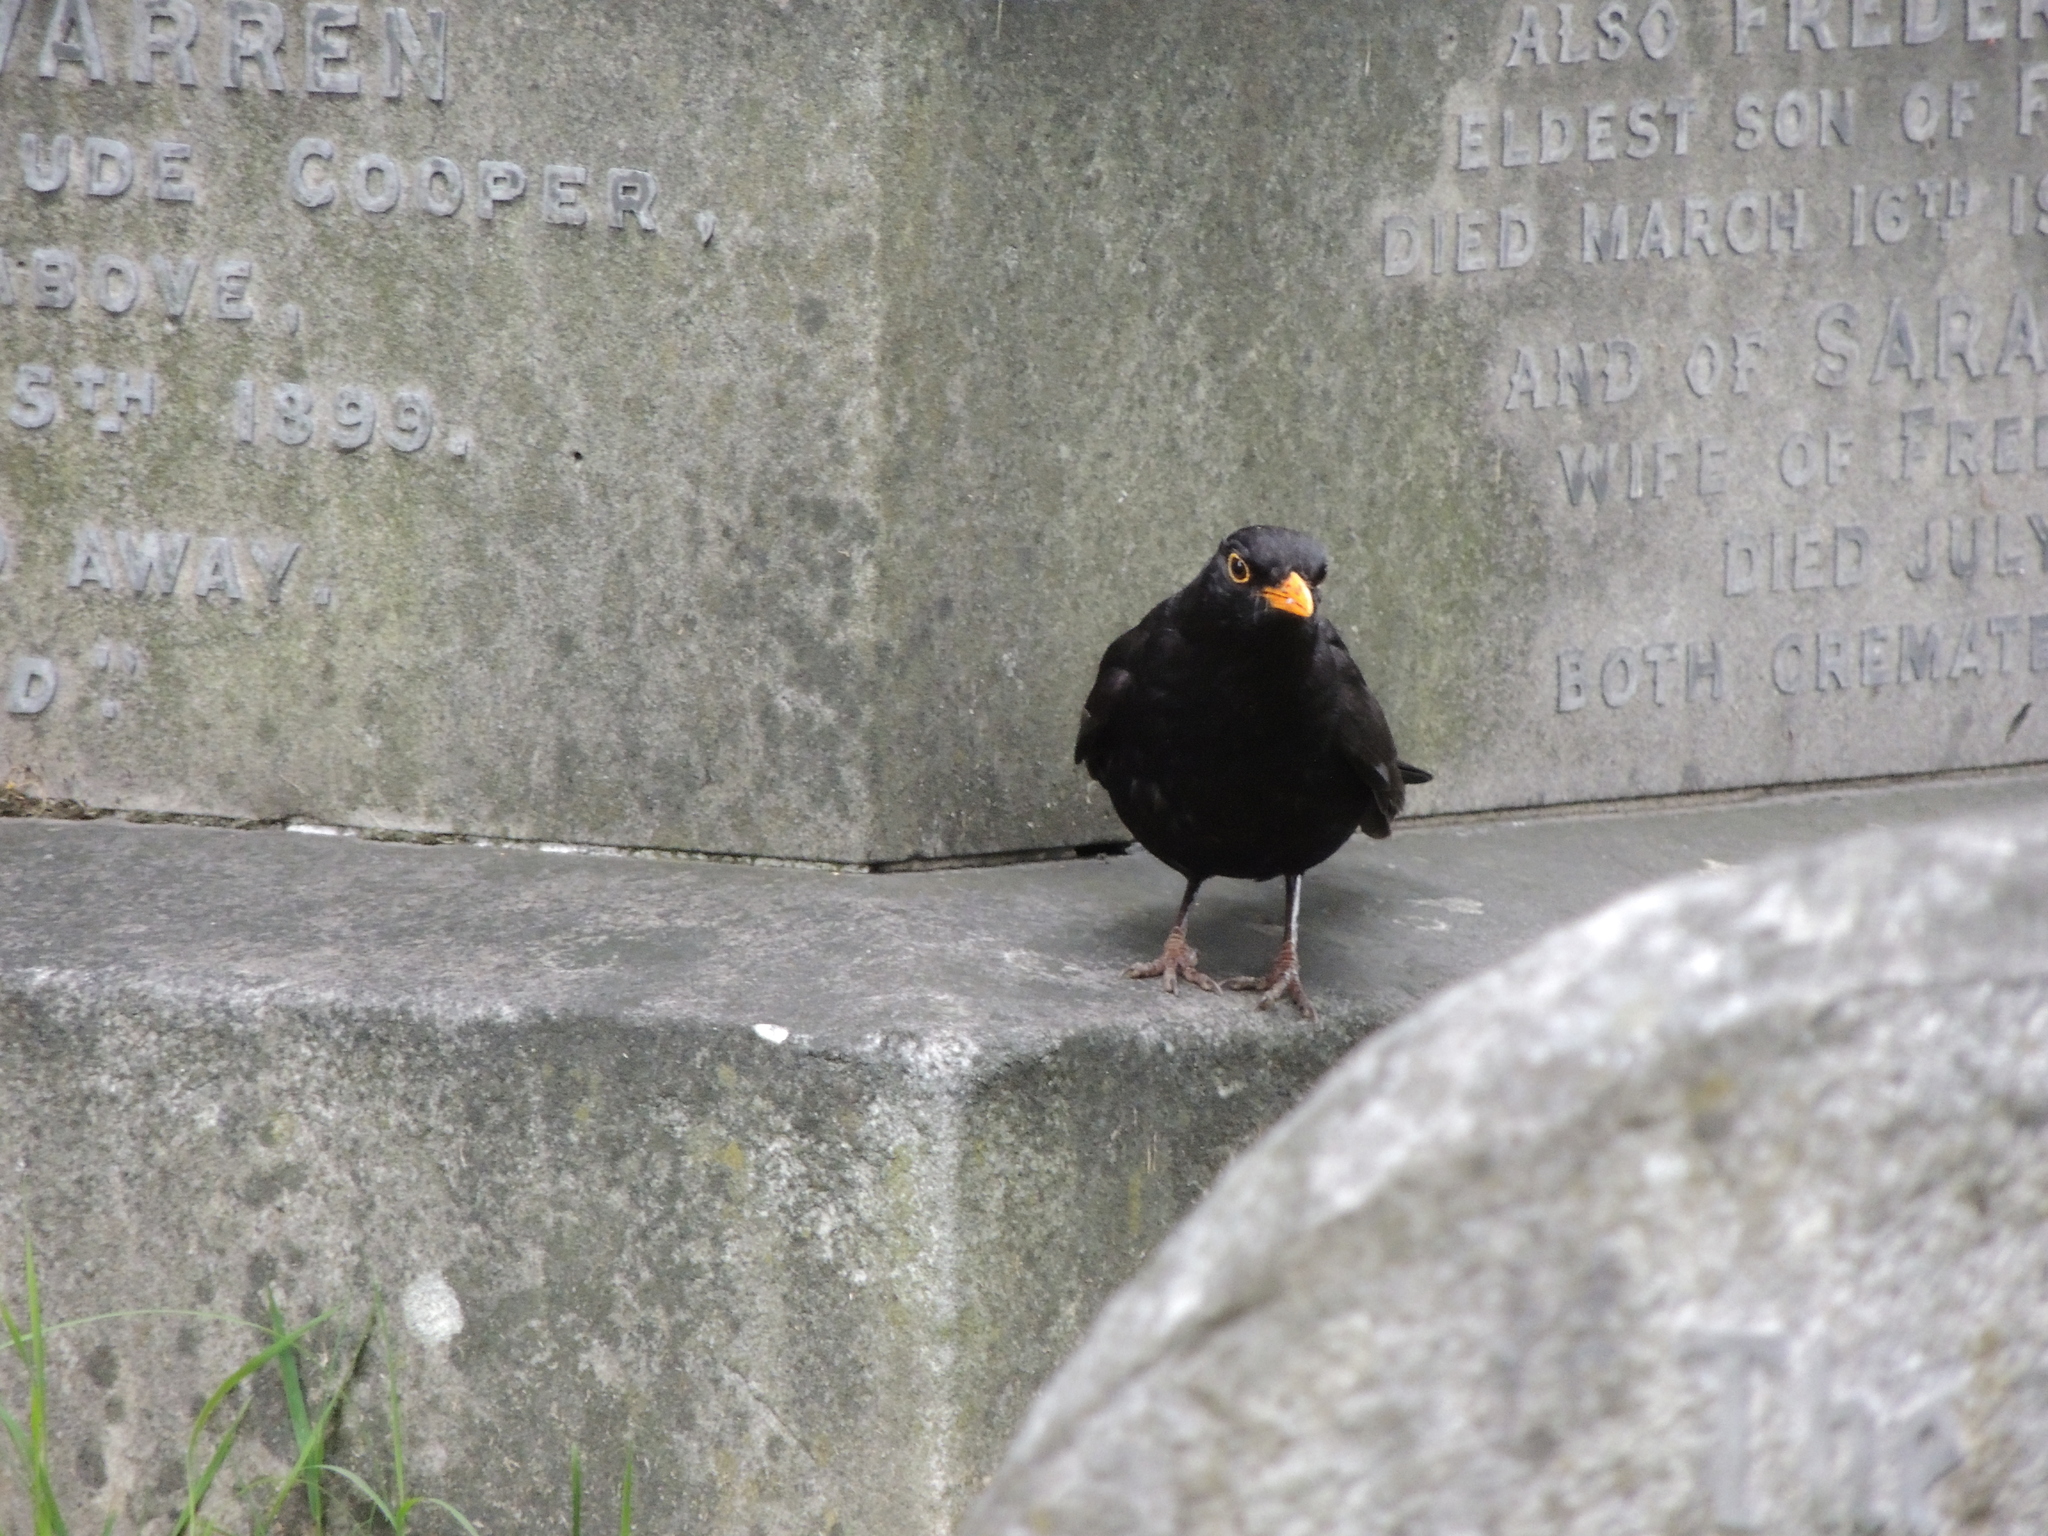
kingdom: Animalia
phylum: Chordata
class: Aves
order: Passeriformes
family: Turdidae
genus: Turdus
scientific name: Turdus merula
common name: Common blackbird
